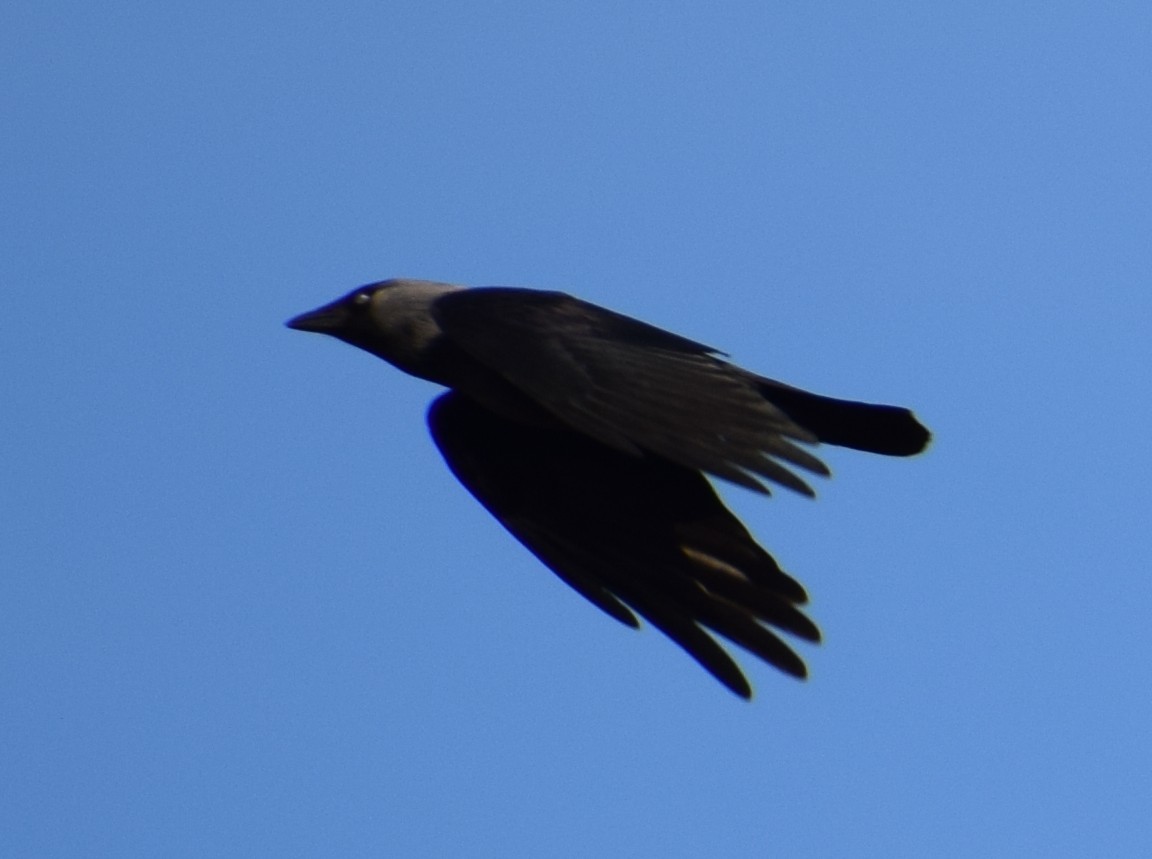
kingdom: Animalia
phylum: Chordata
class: Aves
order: Passeriformes
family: Corvidae
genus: Coloeus
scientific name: Coloeus monedula
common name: Western jackdaw
